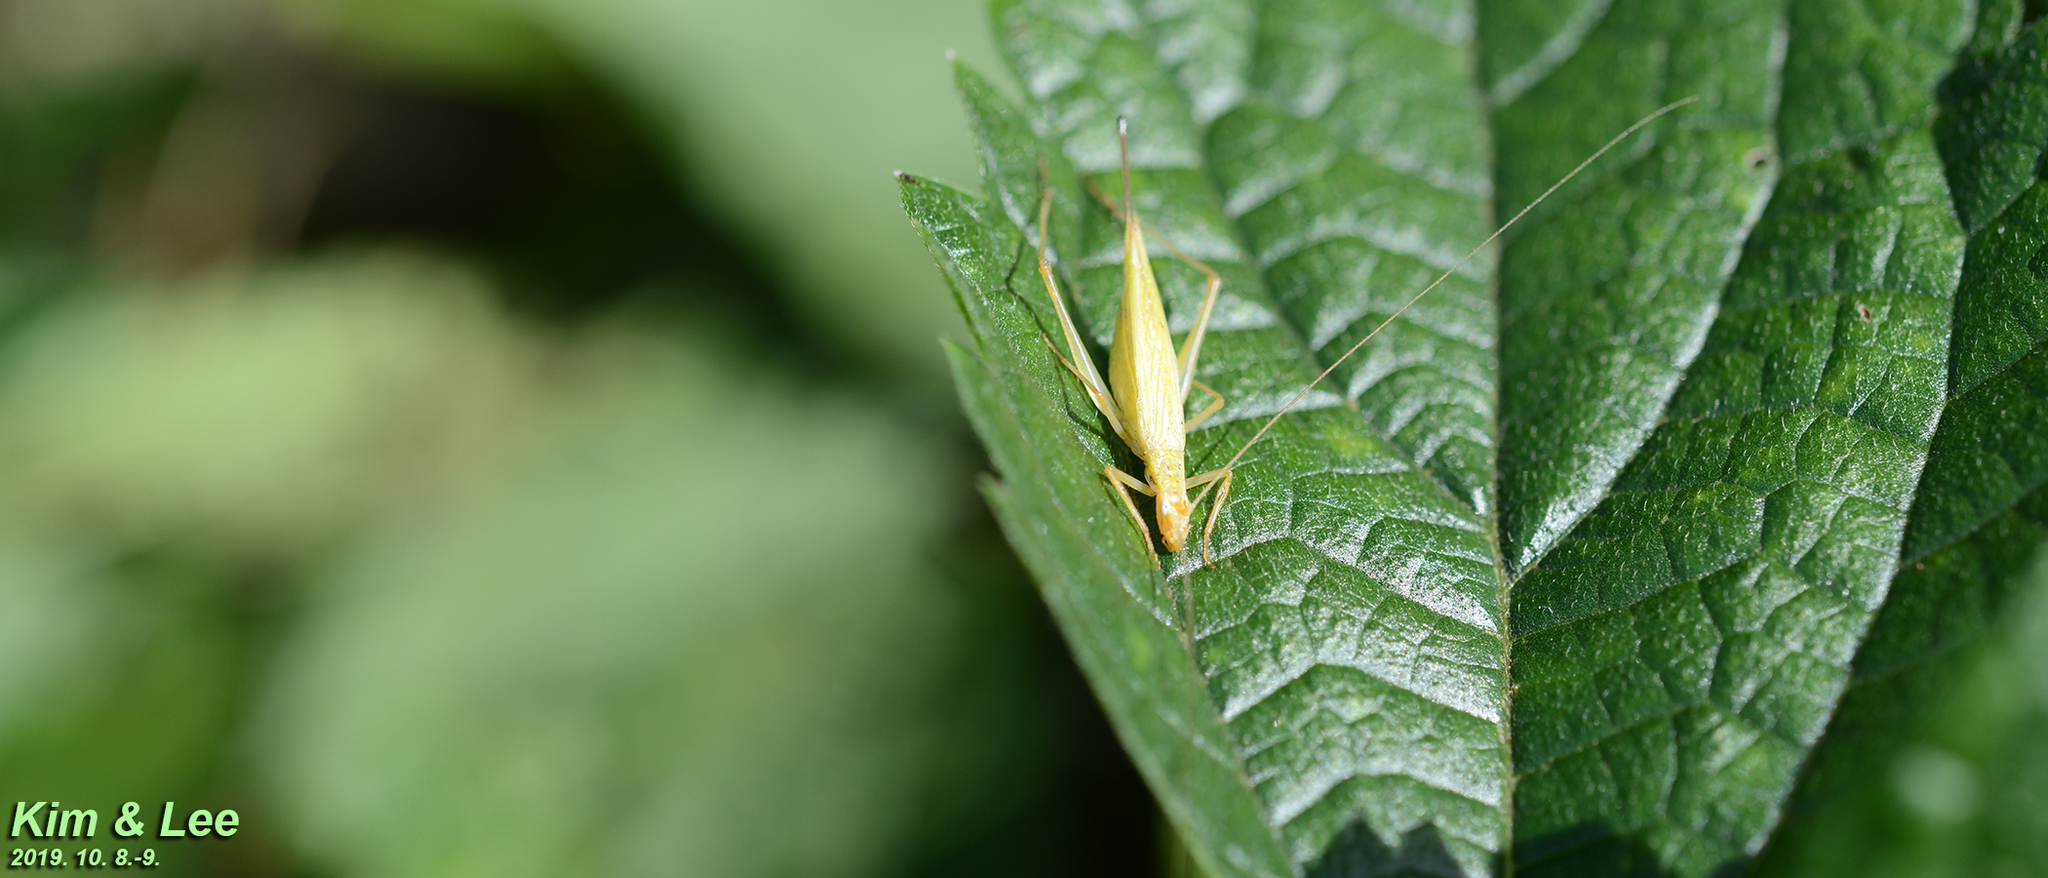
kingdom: Animalia
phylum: Arthropoda
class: Insecta
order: Orthoptera
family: Gryllidae
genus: Oecanthus
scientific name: Oecanthus longicauda
